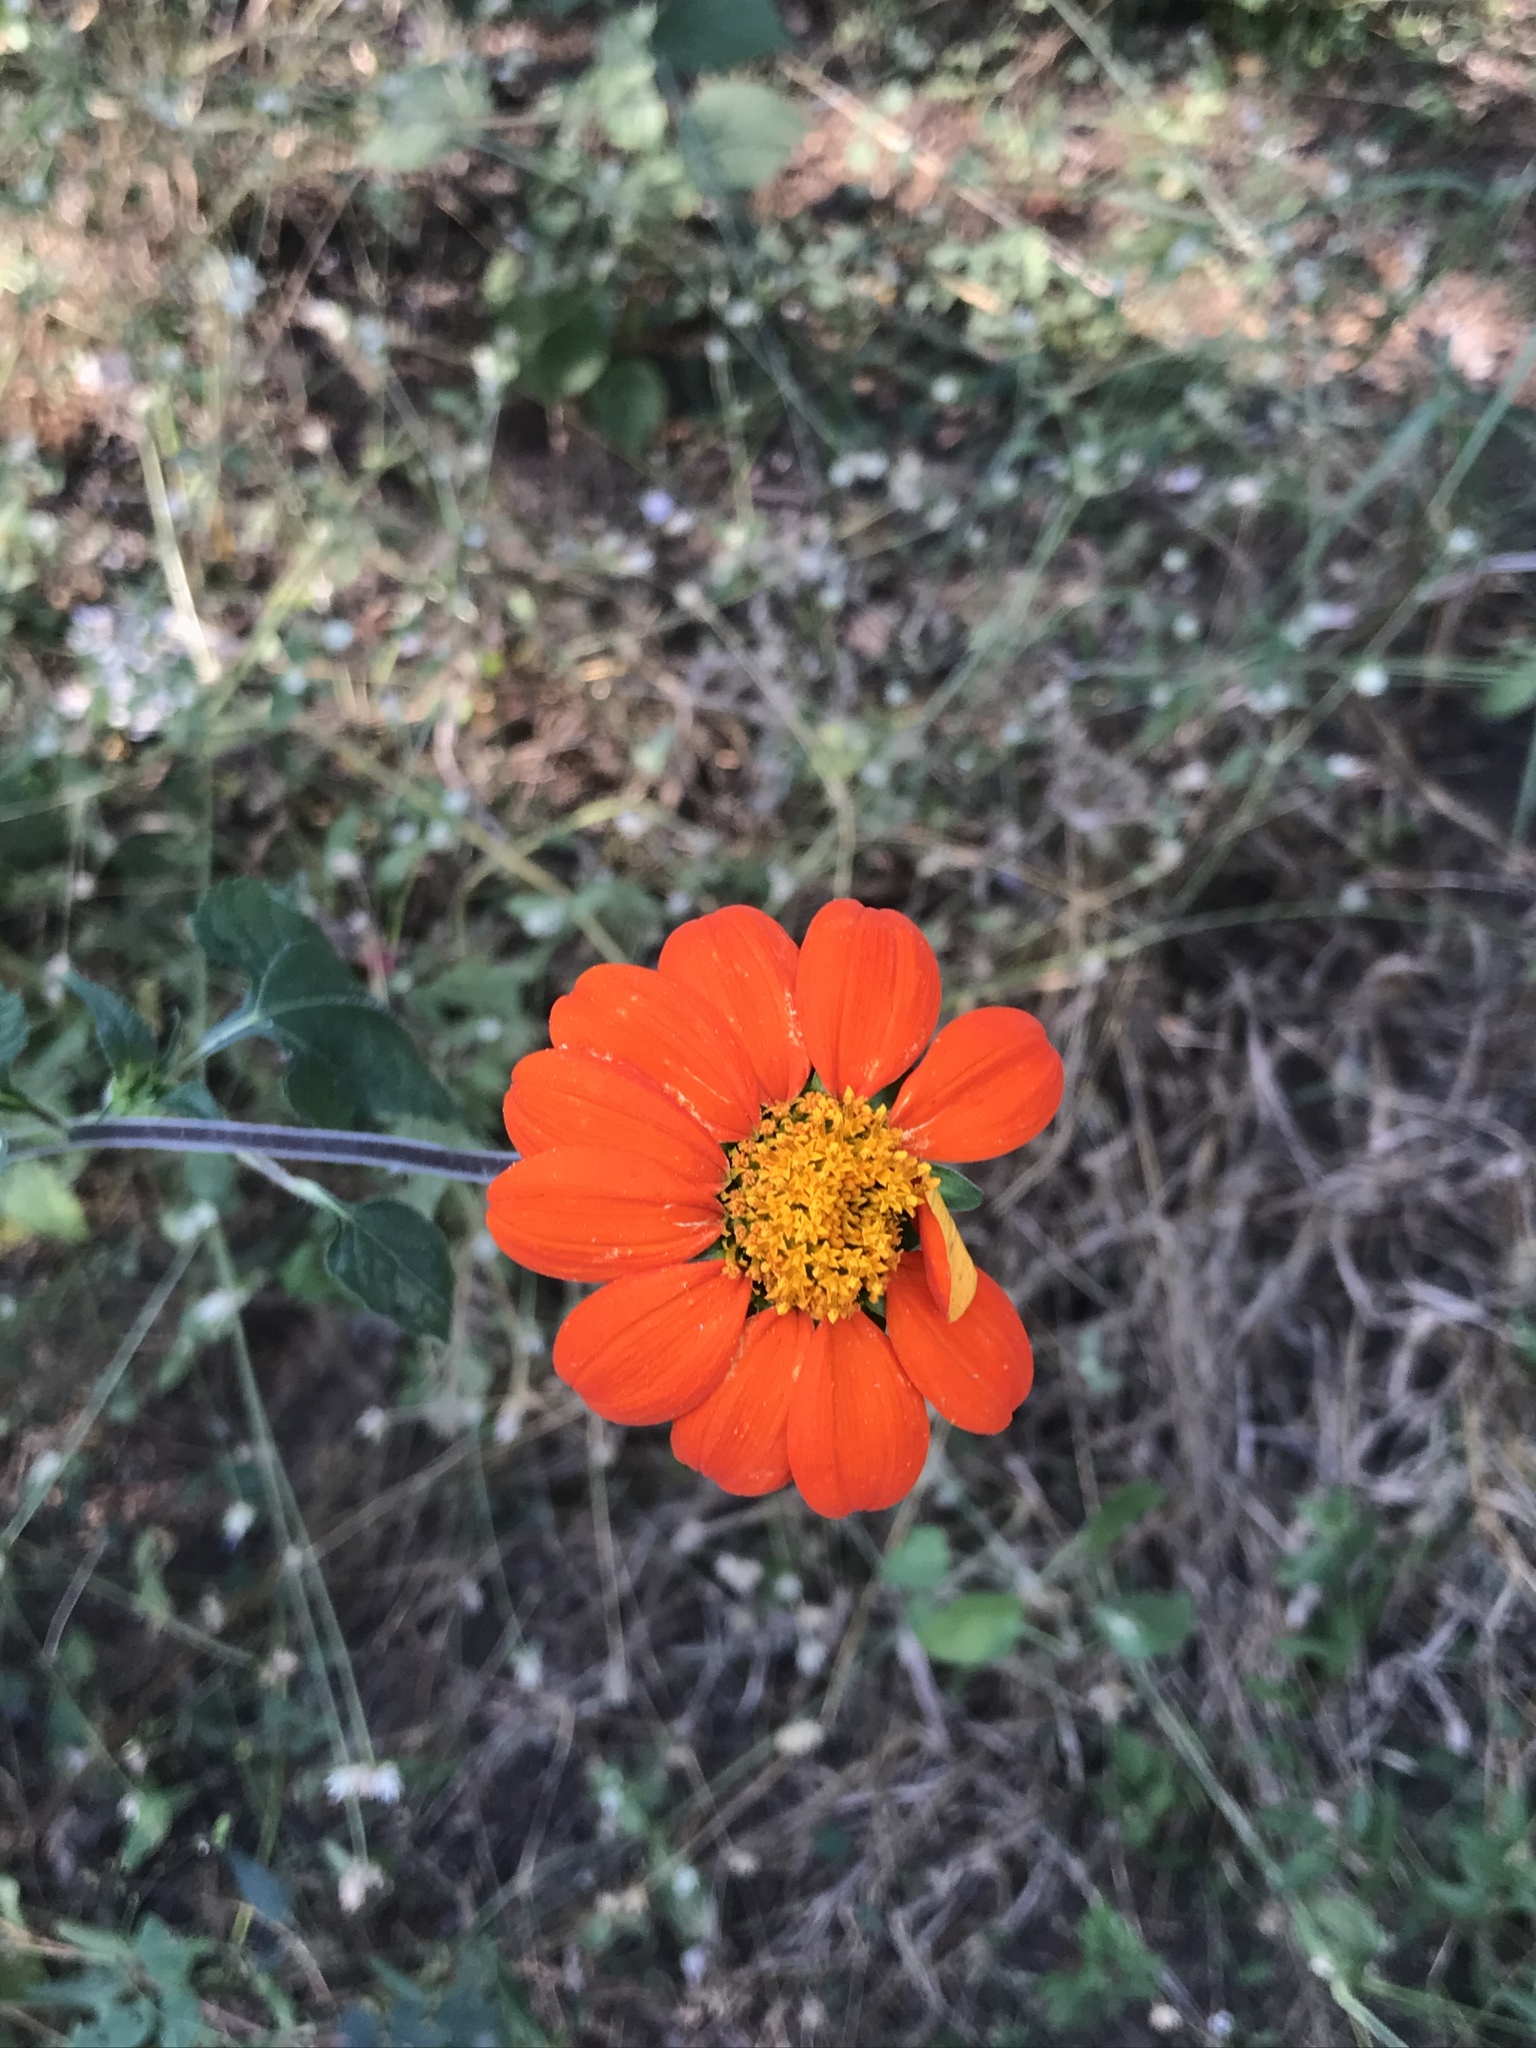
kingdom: Plantae
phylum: Tracheophyta
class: Magnoliopsida
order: Asterales
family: Asteraceae
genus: Tithonia
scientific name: Tithonia rotundifolia
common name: Sunflower
